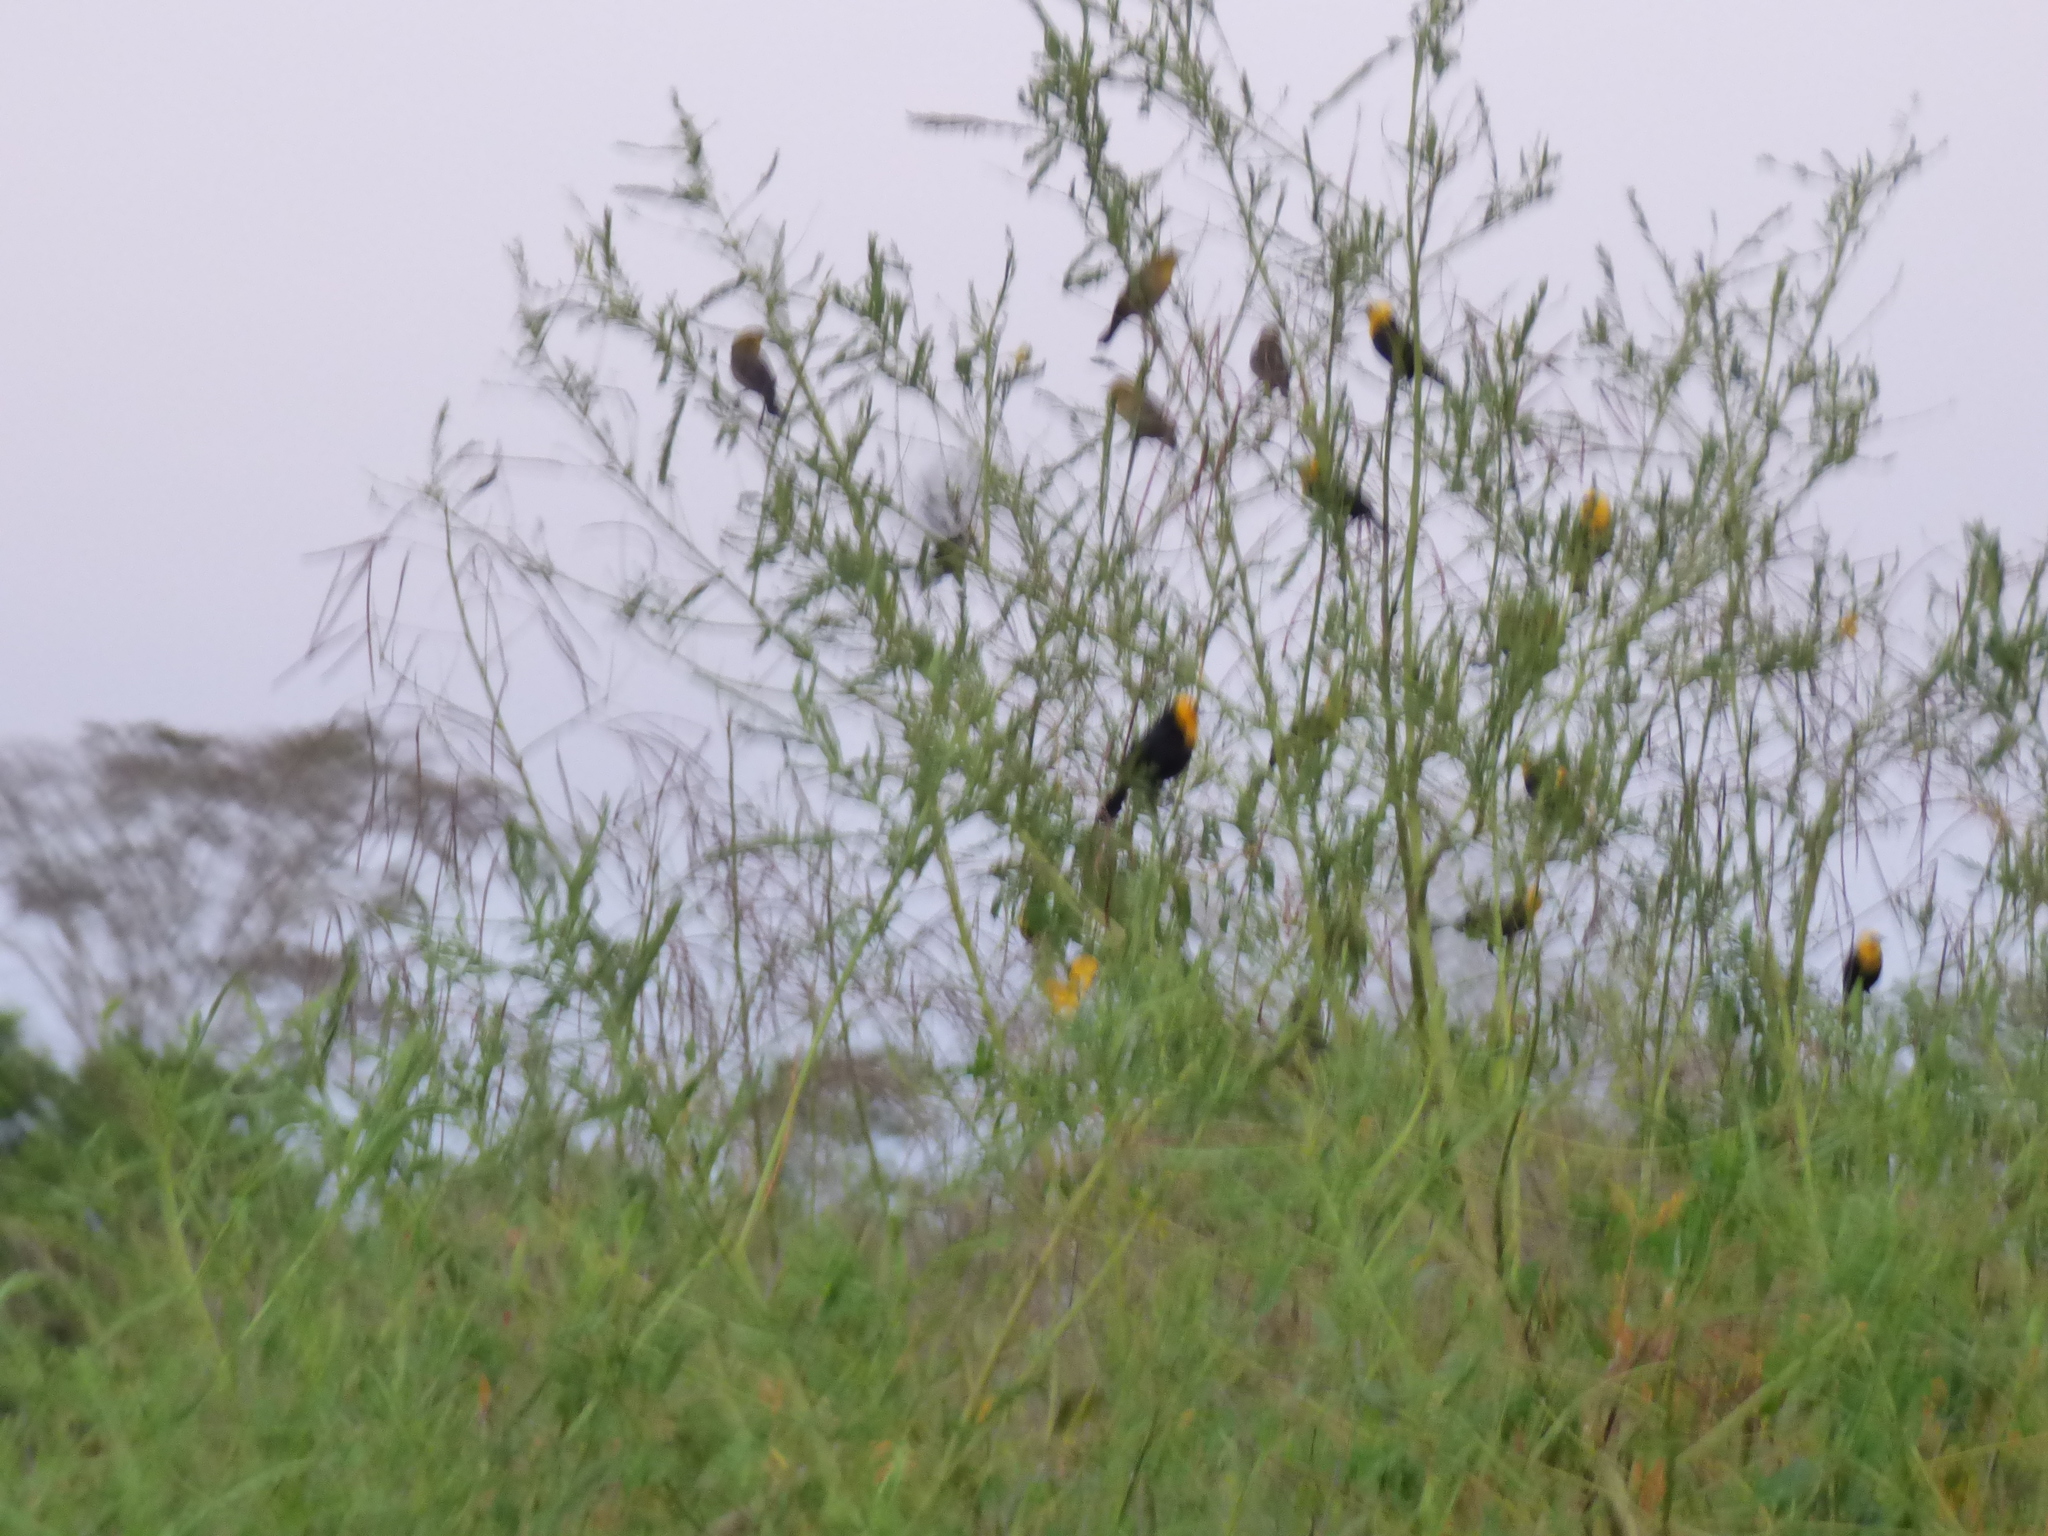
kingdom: Animalia
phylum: Chordata
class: Aves
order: Passeriformes
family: Icteridae
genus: Chrysomus
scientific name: Chrysomus icterocephalus
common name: Yellow-hooded blackbird
